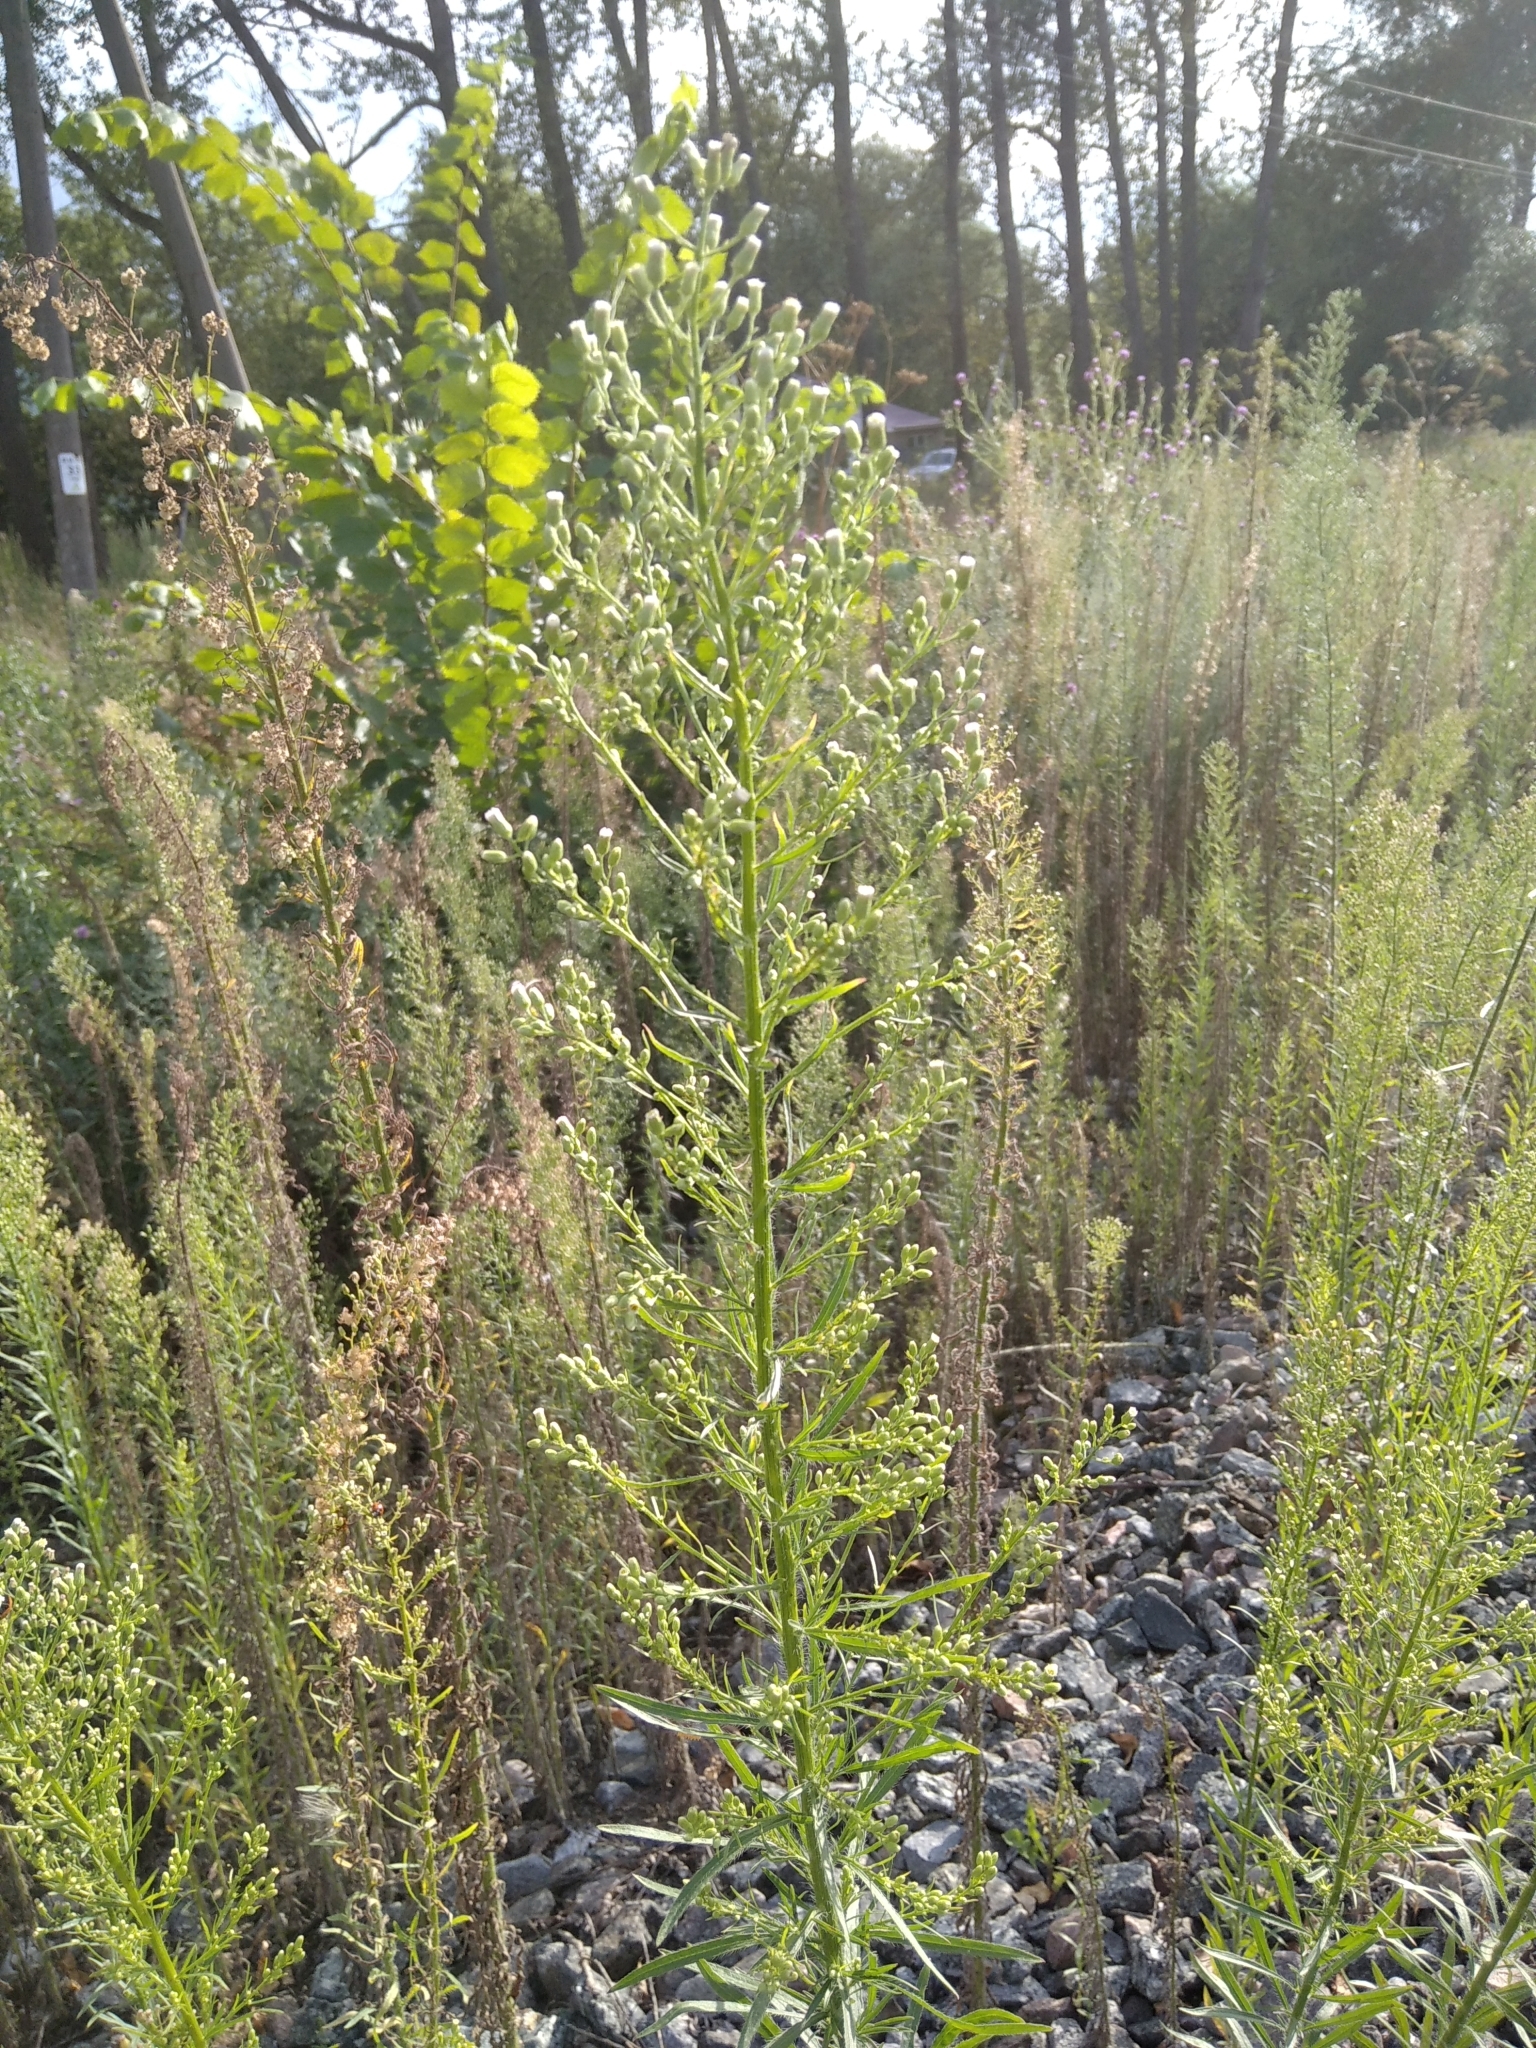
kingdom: Plantae
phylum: Tracheophyta
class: Magnoliopsida
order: Asterales
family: Asteraceae
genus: Erigeron
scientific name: Erigeron canadensis
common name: Canadian fleabane
